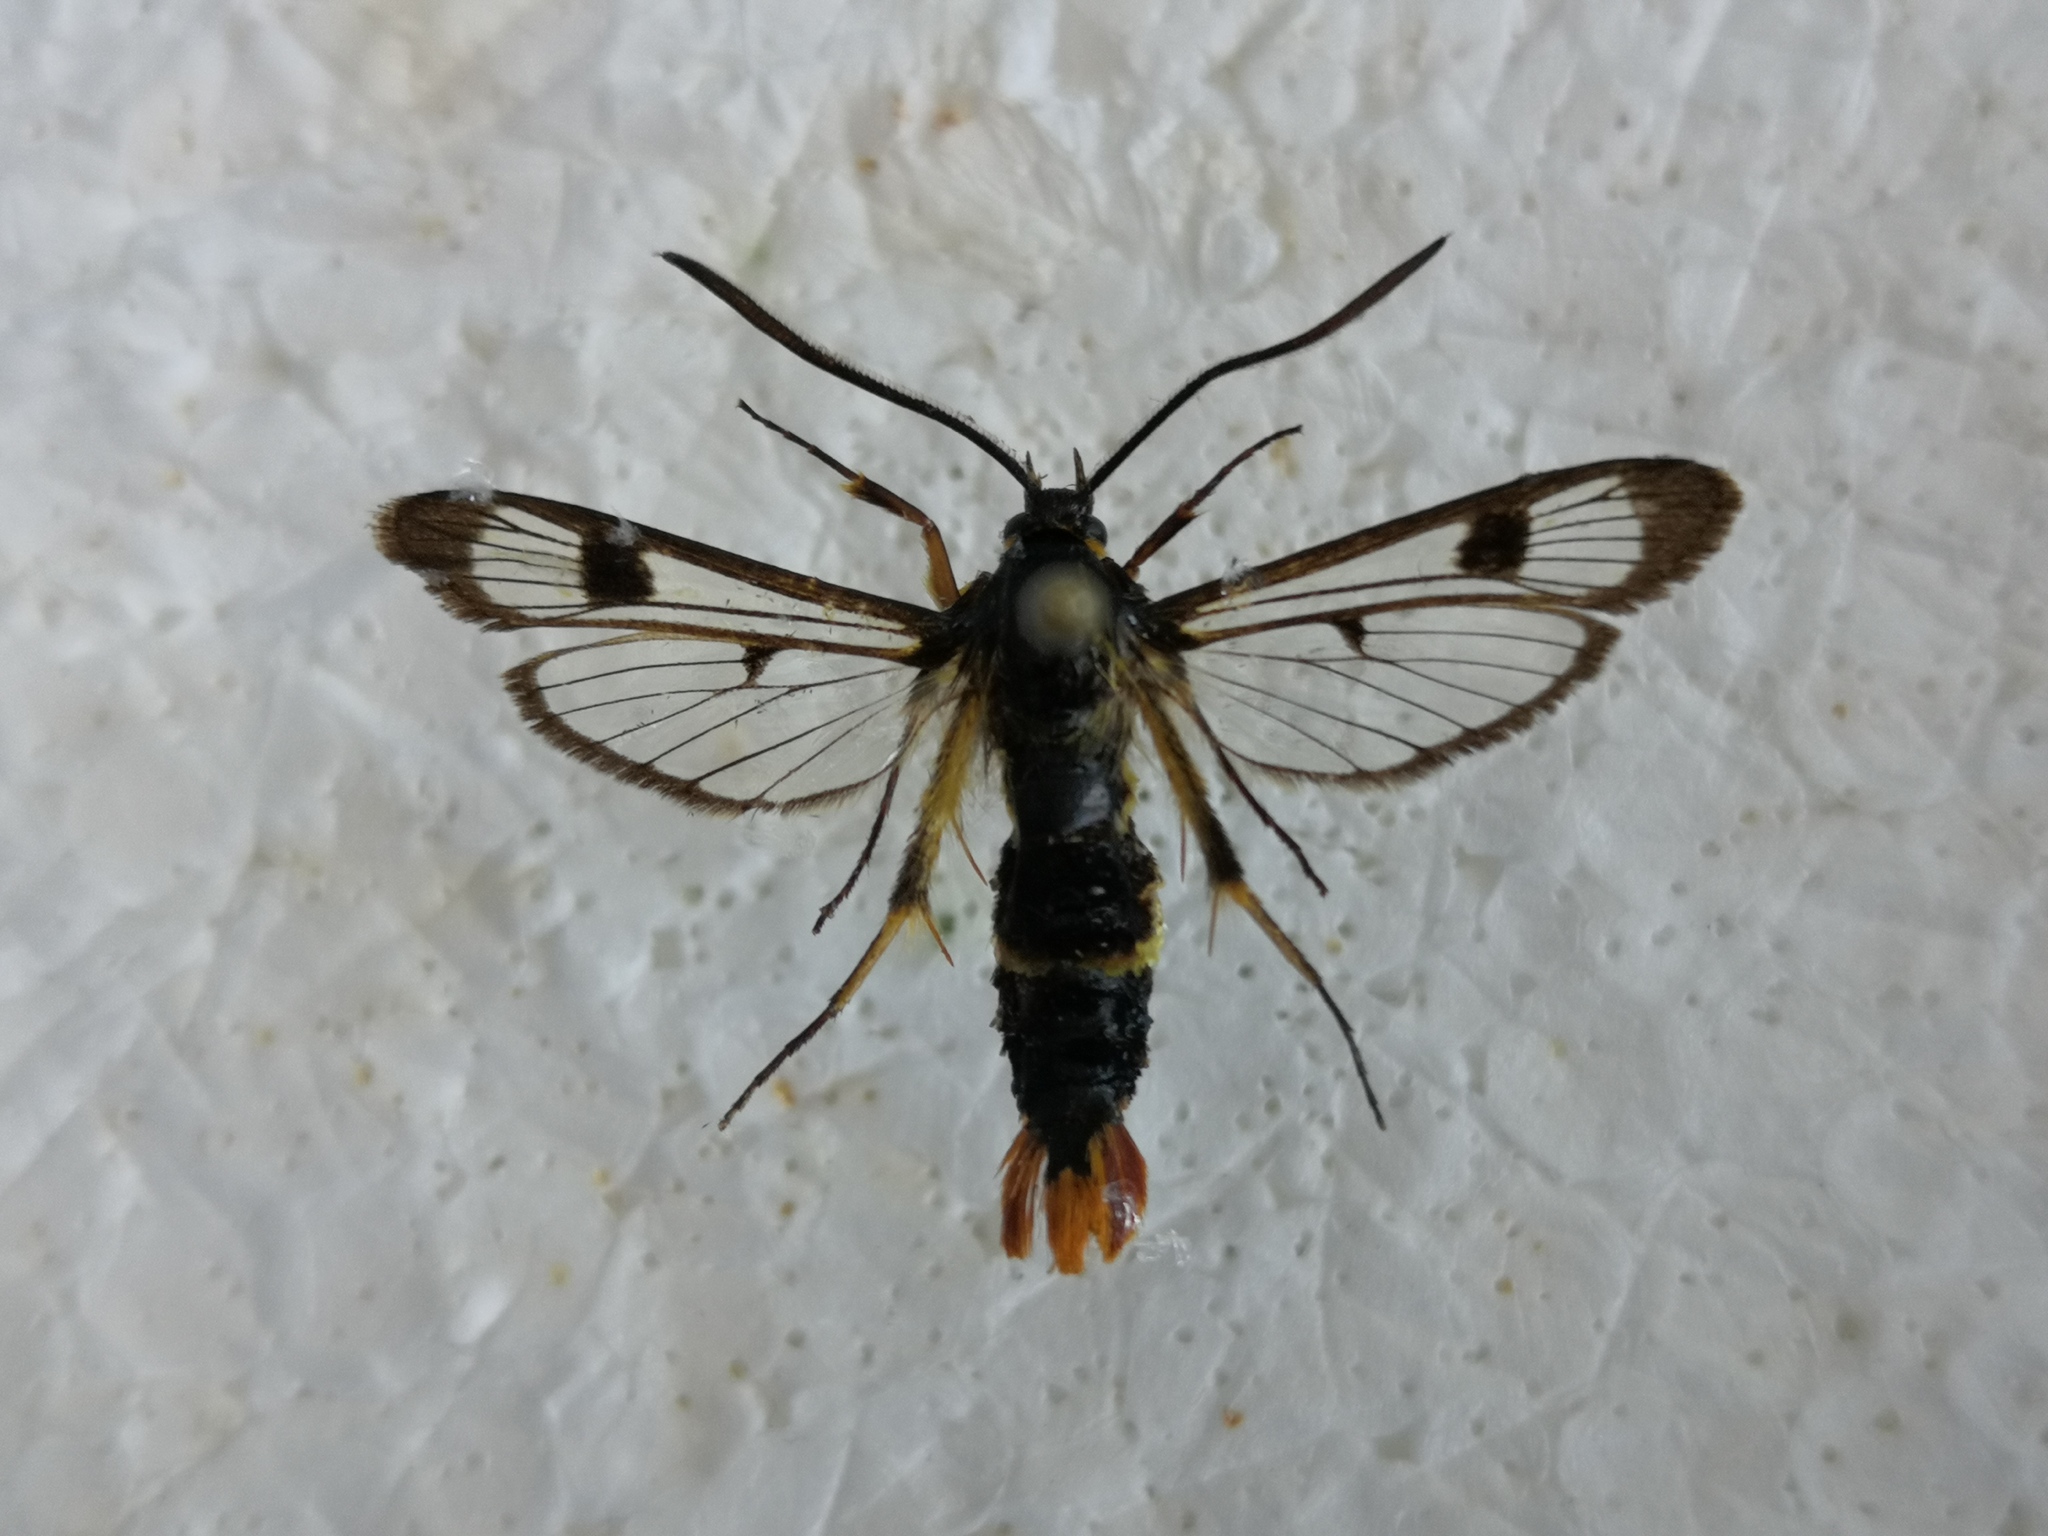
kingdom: Animalia
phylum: Arthropoda
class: Insecta
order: Lepidoptera
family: Sesiidae
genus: Synanthedon
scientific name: Synanthedon scoliaeformis
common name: Welsh clearwing
